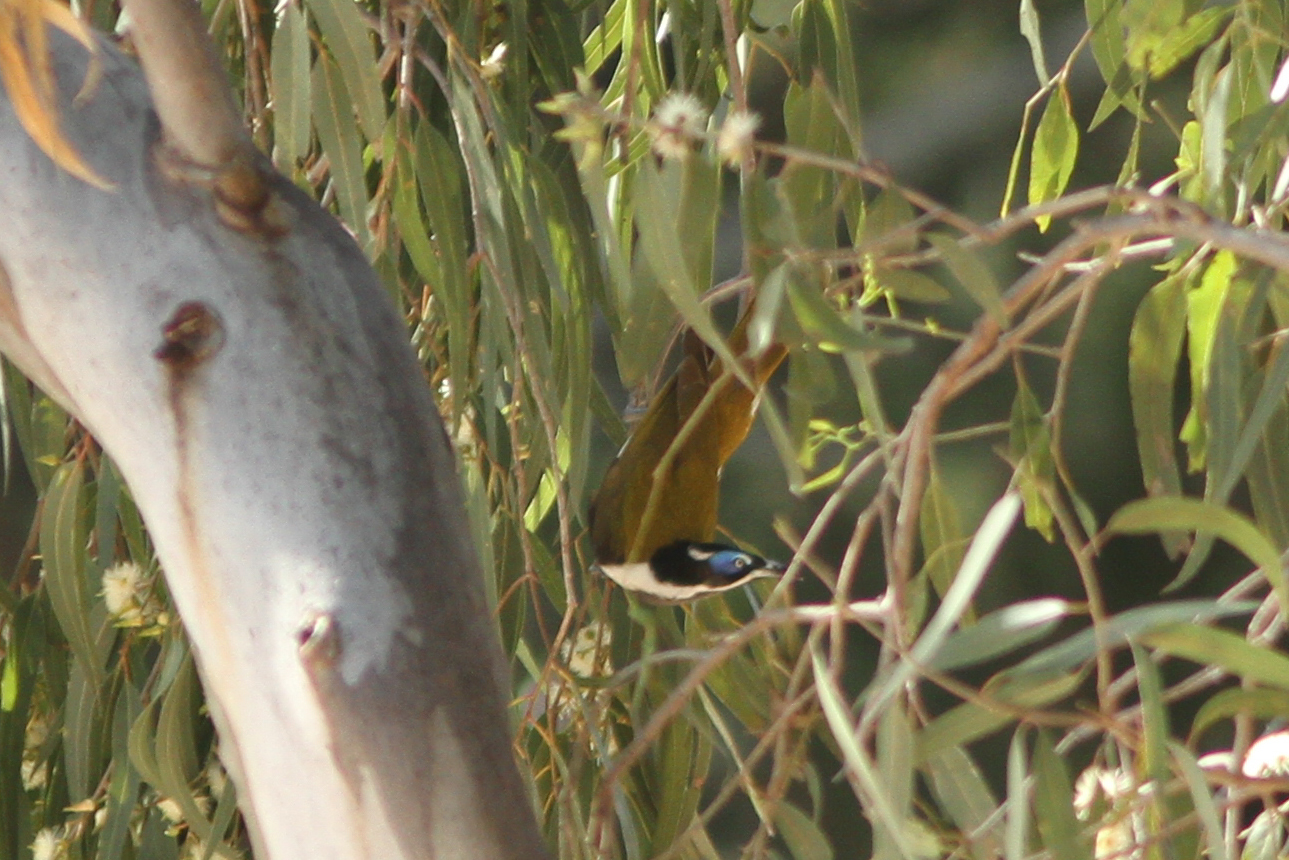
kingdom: Animalia
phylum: Chordata
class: Aves
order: Passeriformes
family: Meliphagidae
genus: Entomyzon
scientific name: Entomyzon cyanotis
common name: Blue-faced honeyeater
